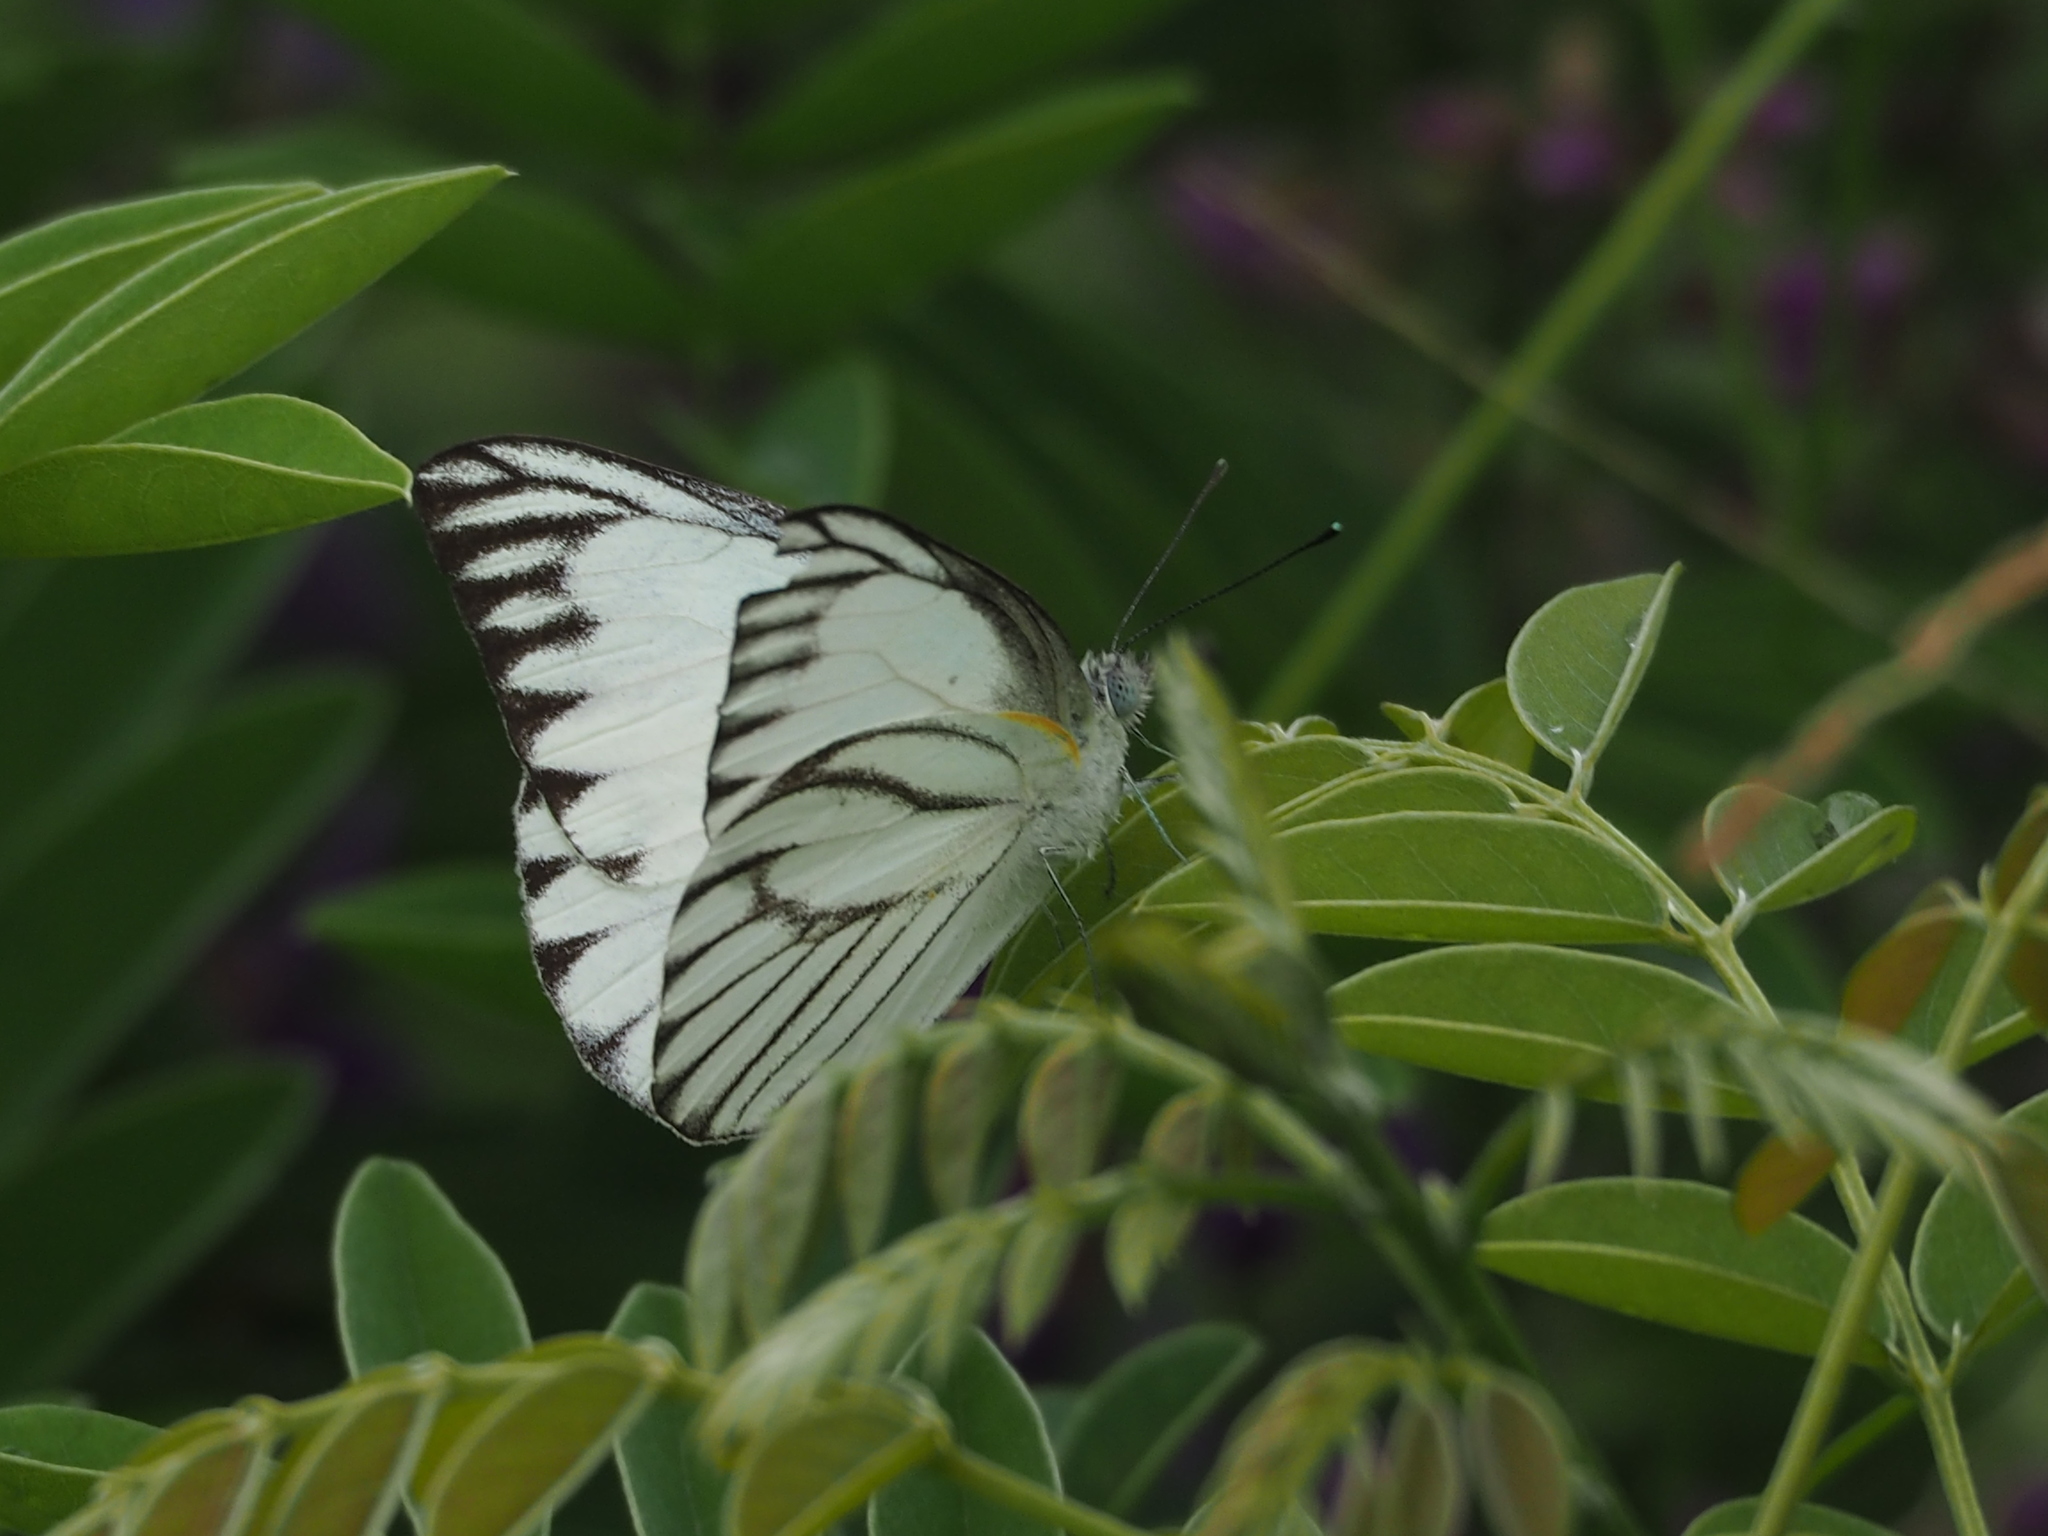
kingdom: Animalia
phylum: Arthropoda
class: Insecta
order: Lepidoptera
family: Pieridae
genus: Appias
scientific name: Appias libythea
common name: Striped albatross
